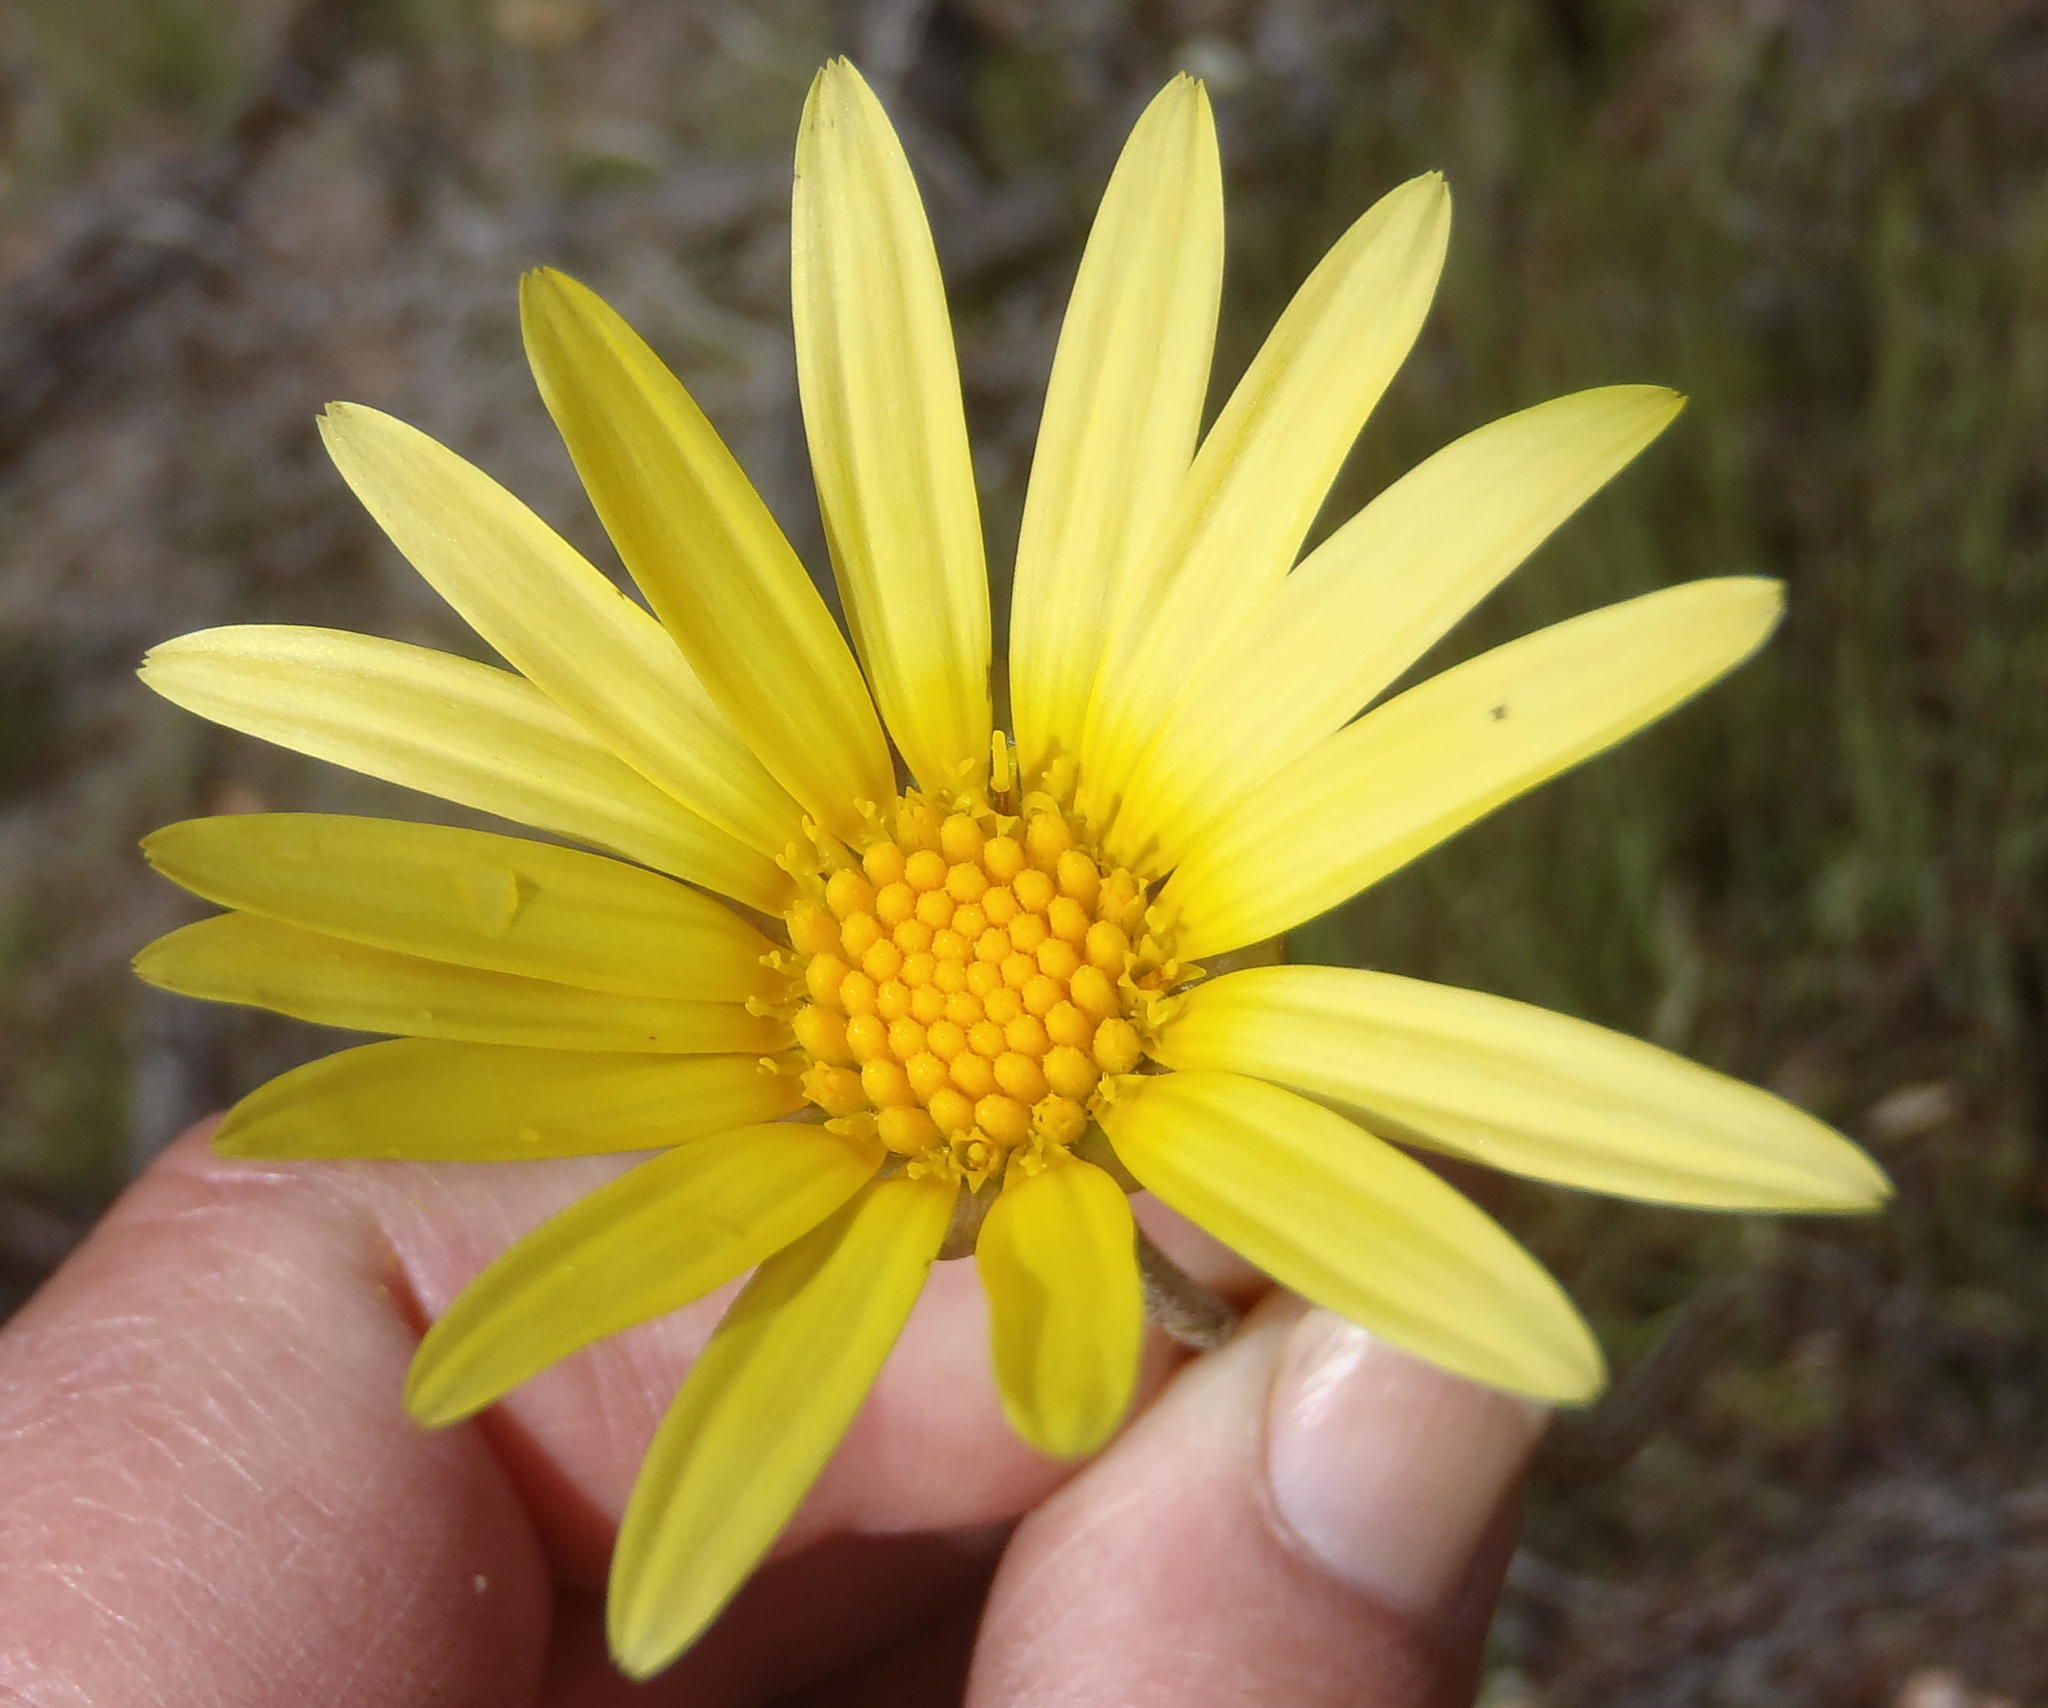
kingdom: Plantae
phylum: Tracheophyta
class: Magnoliopsida
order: Asterales
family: Asteraceae
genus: Arctotheca
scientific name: Arctotheca prostrata
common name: Capeweed
